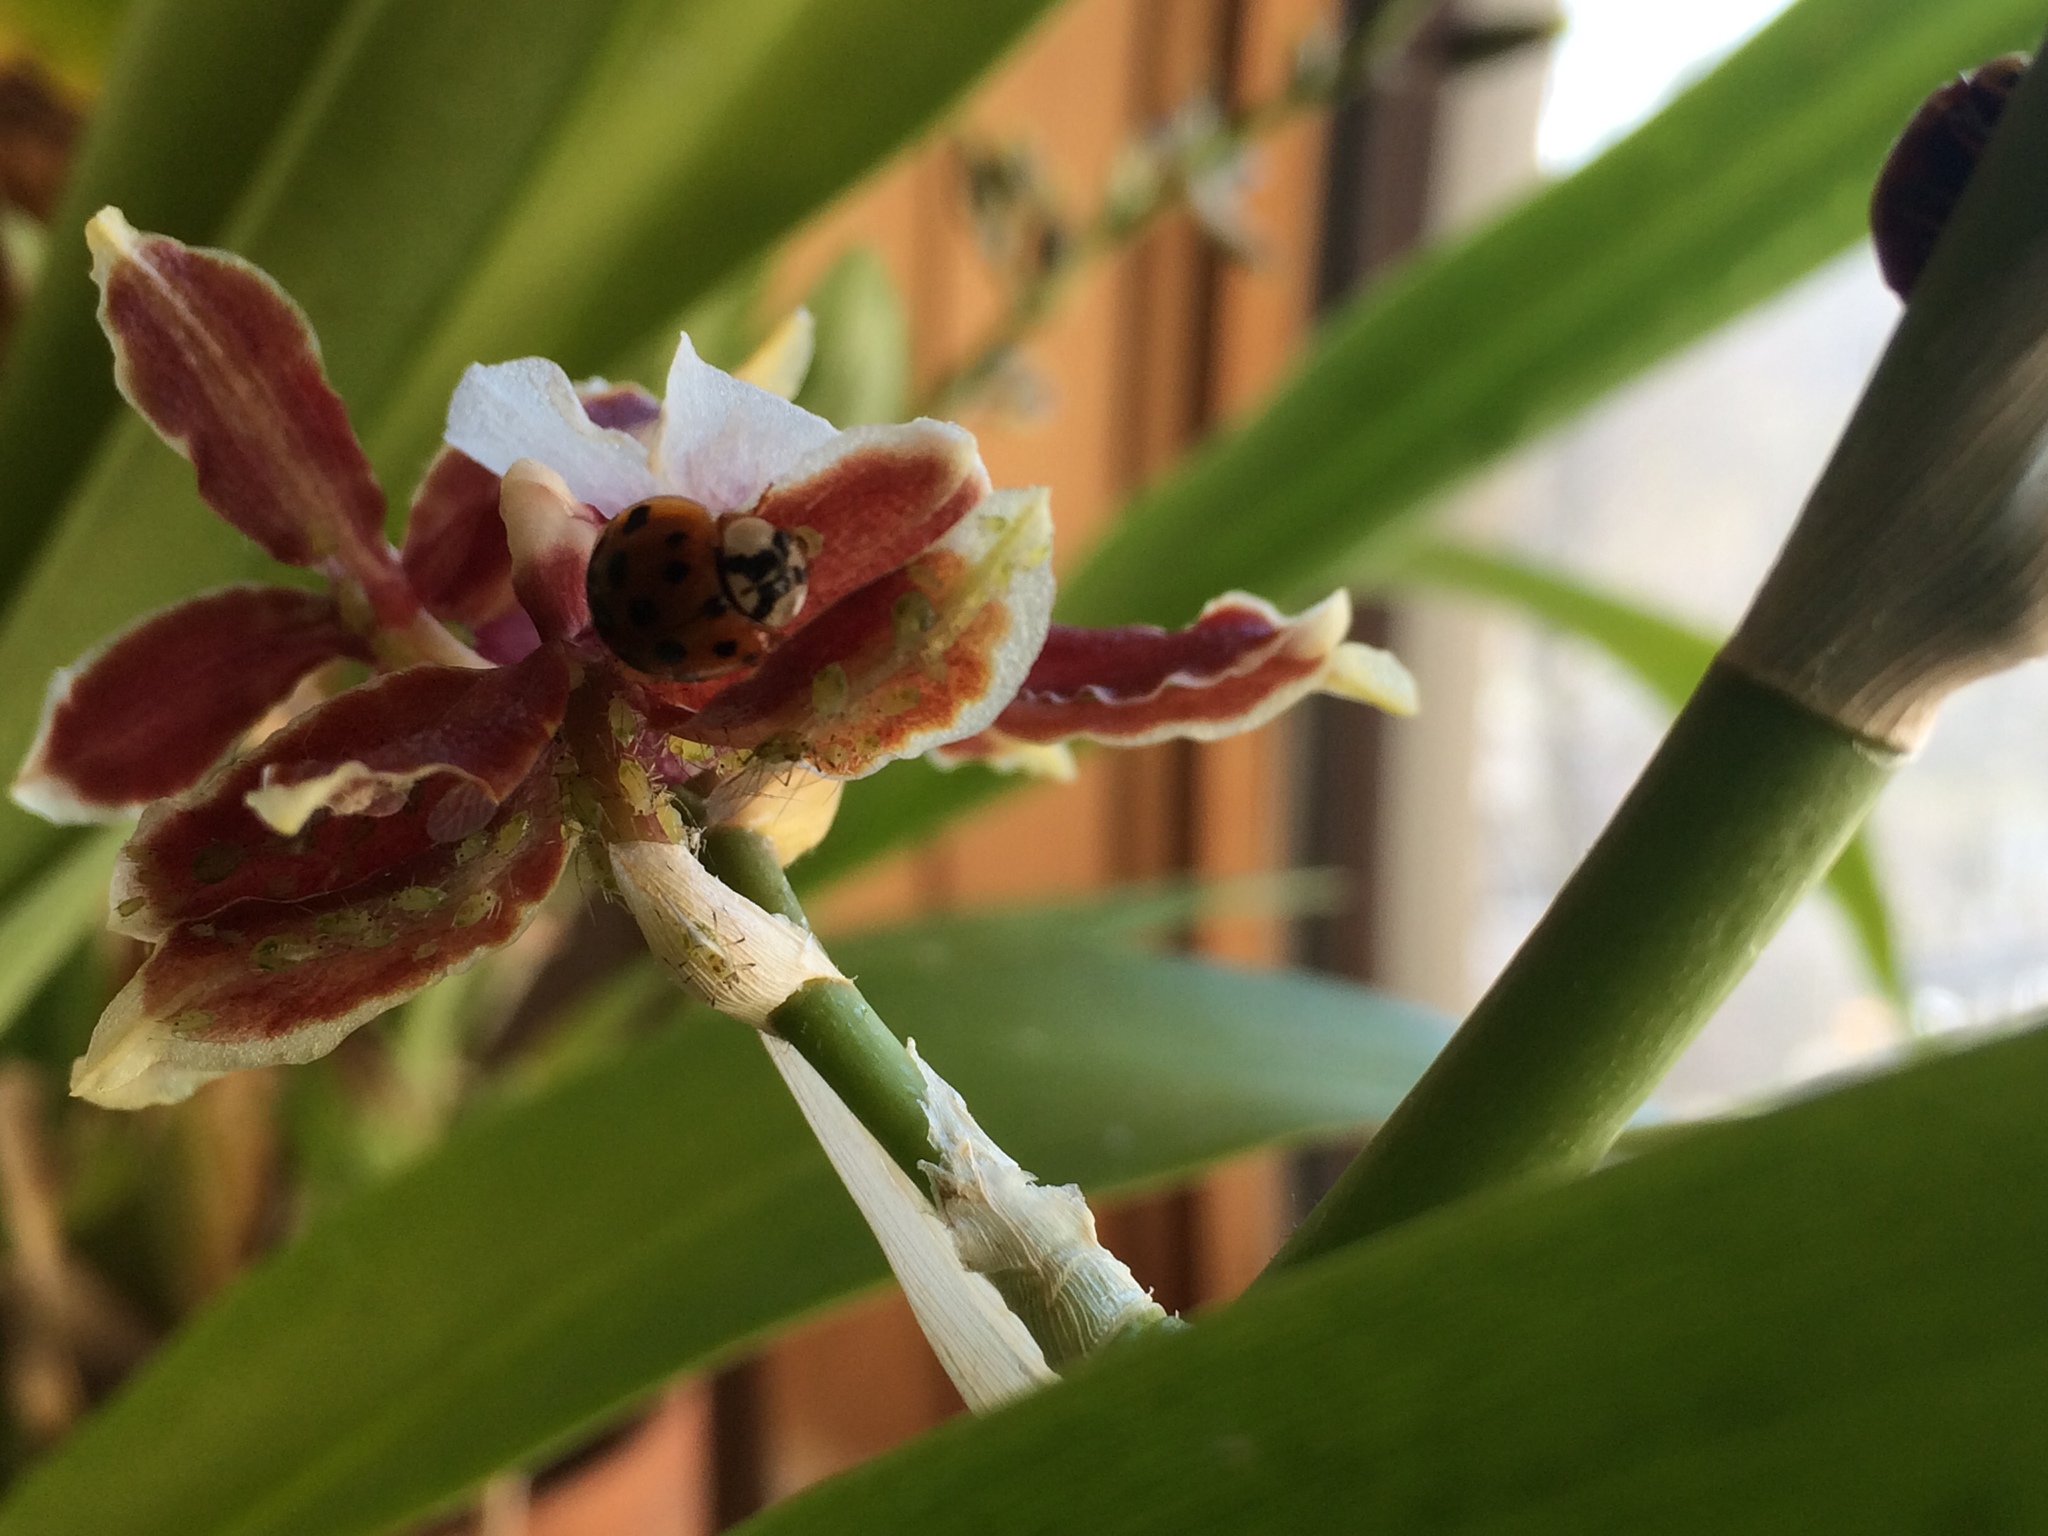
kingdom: Animalia
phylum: Arthropoda
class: Insecta
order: Coleoptera
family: Coccinellidae
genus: Harmonia
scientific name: Harmonia axyridis
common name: Harlequin ladybird
